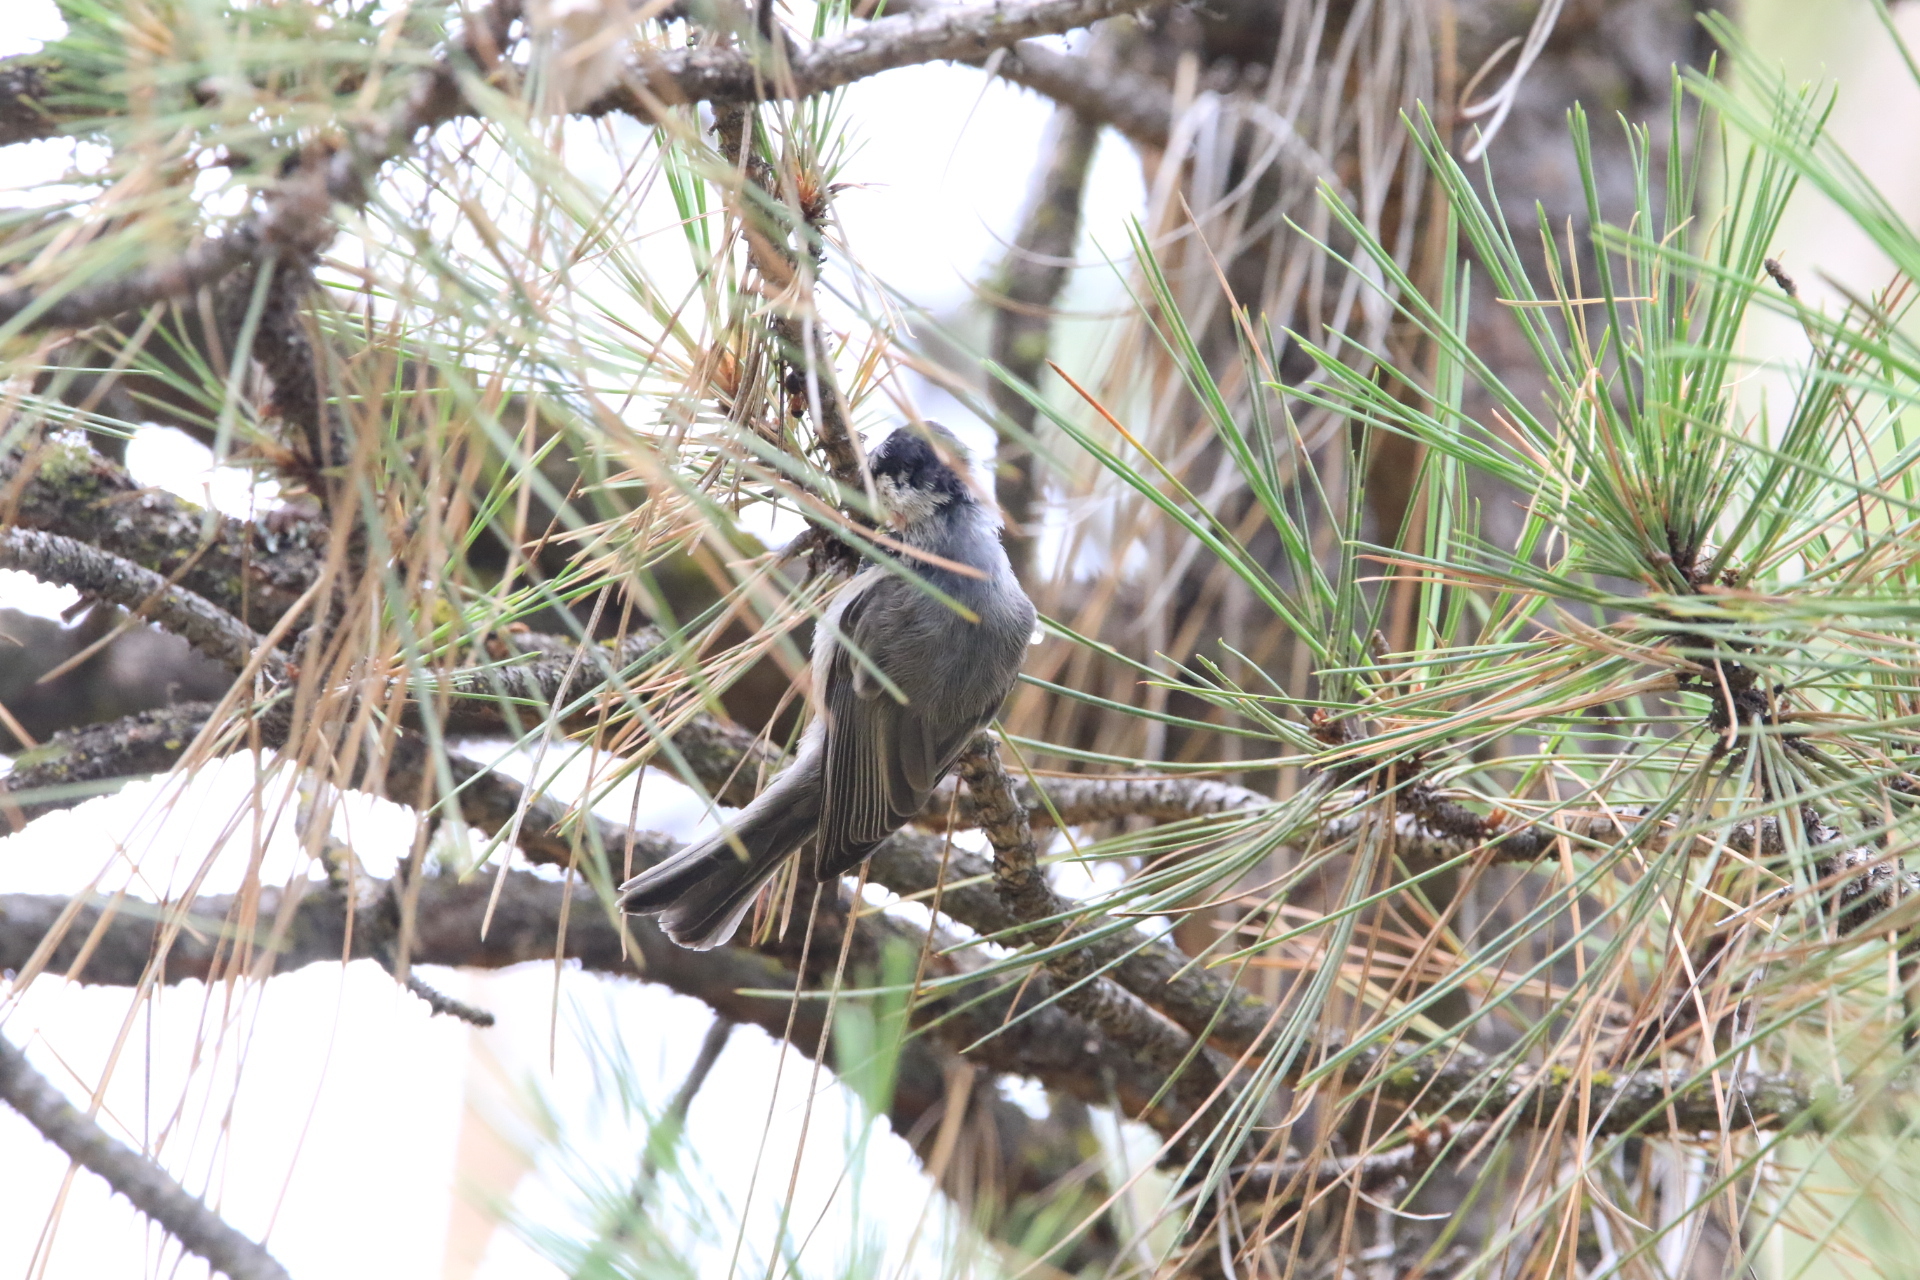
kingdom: Animalia
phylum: Chordata
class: Aves
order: Passeriformes
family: Paridae
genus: Poecile
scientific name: Poecile gambeli
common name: Mountain chickadee
